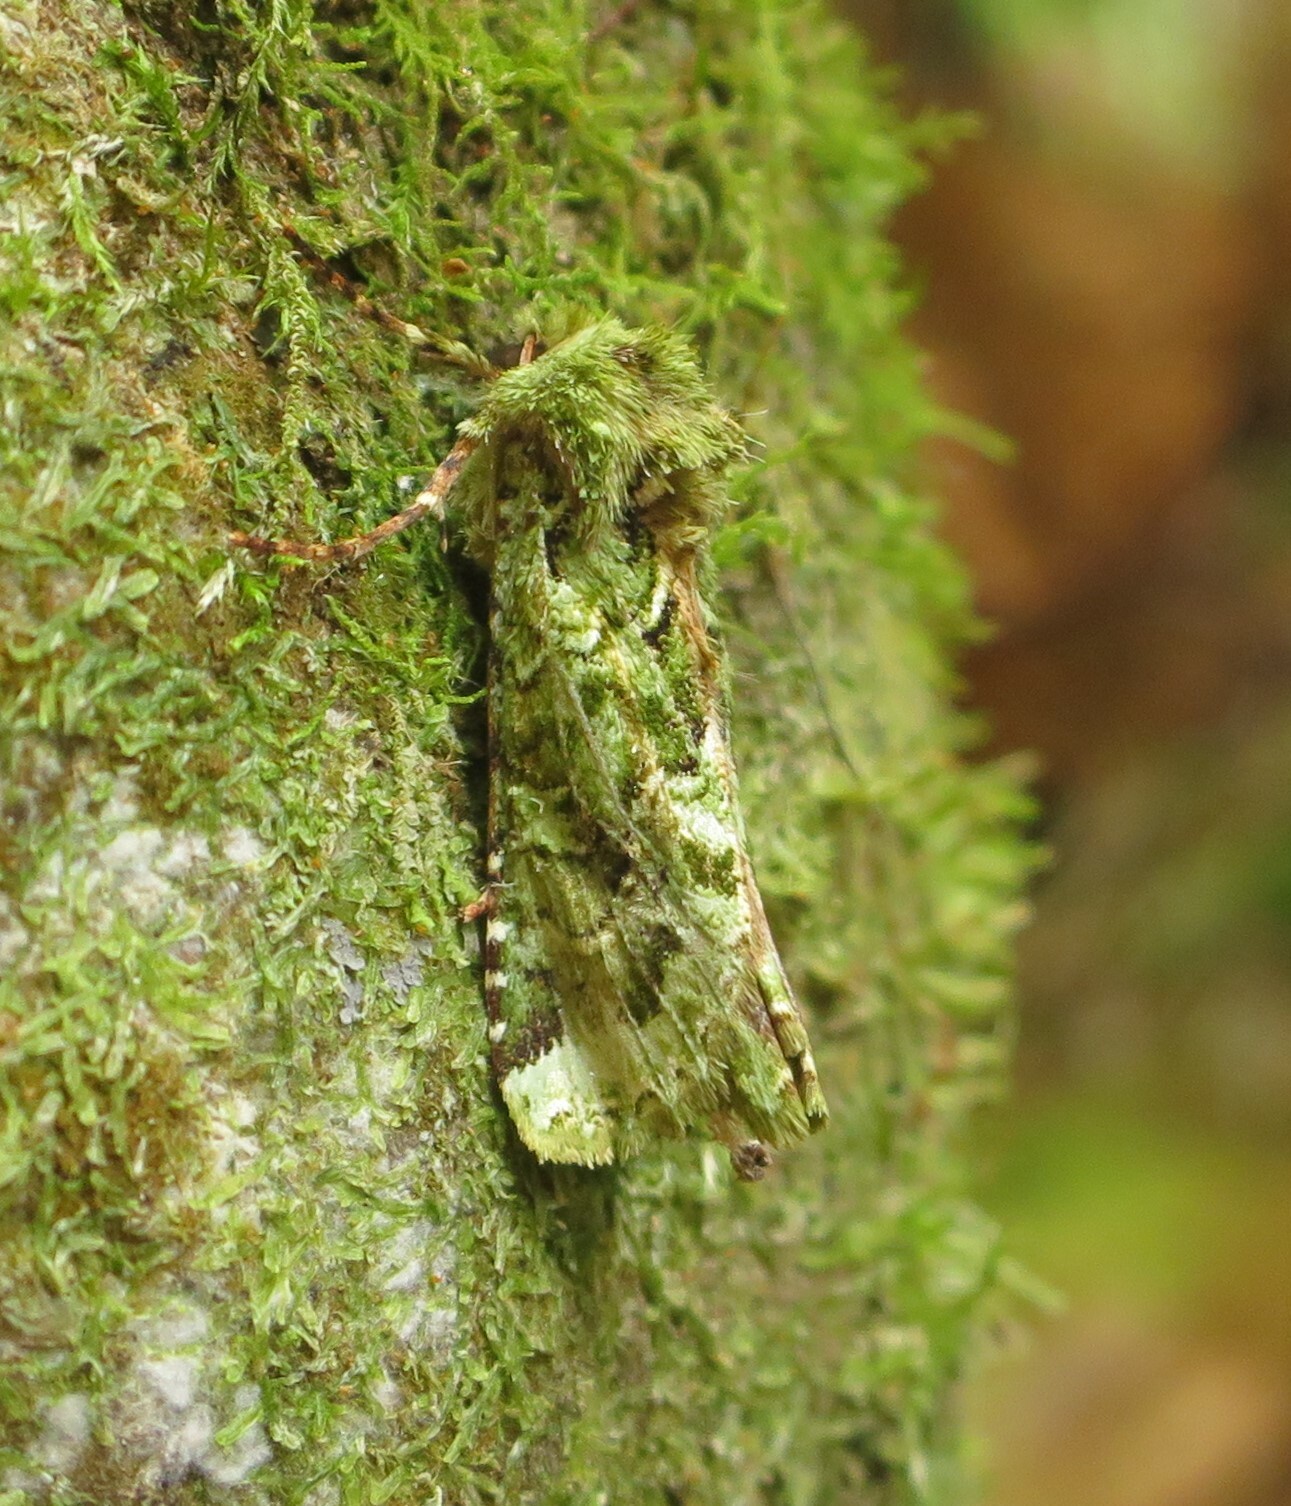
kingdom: Animalia
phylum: Arthropoda
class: Insecta
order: Lepidoptera
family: Noctuidae
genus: Feredayia
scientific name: Feredayia grammosa
